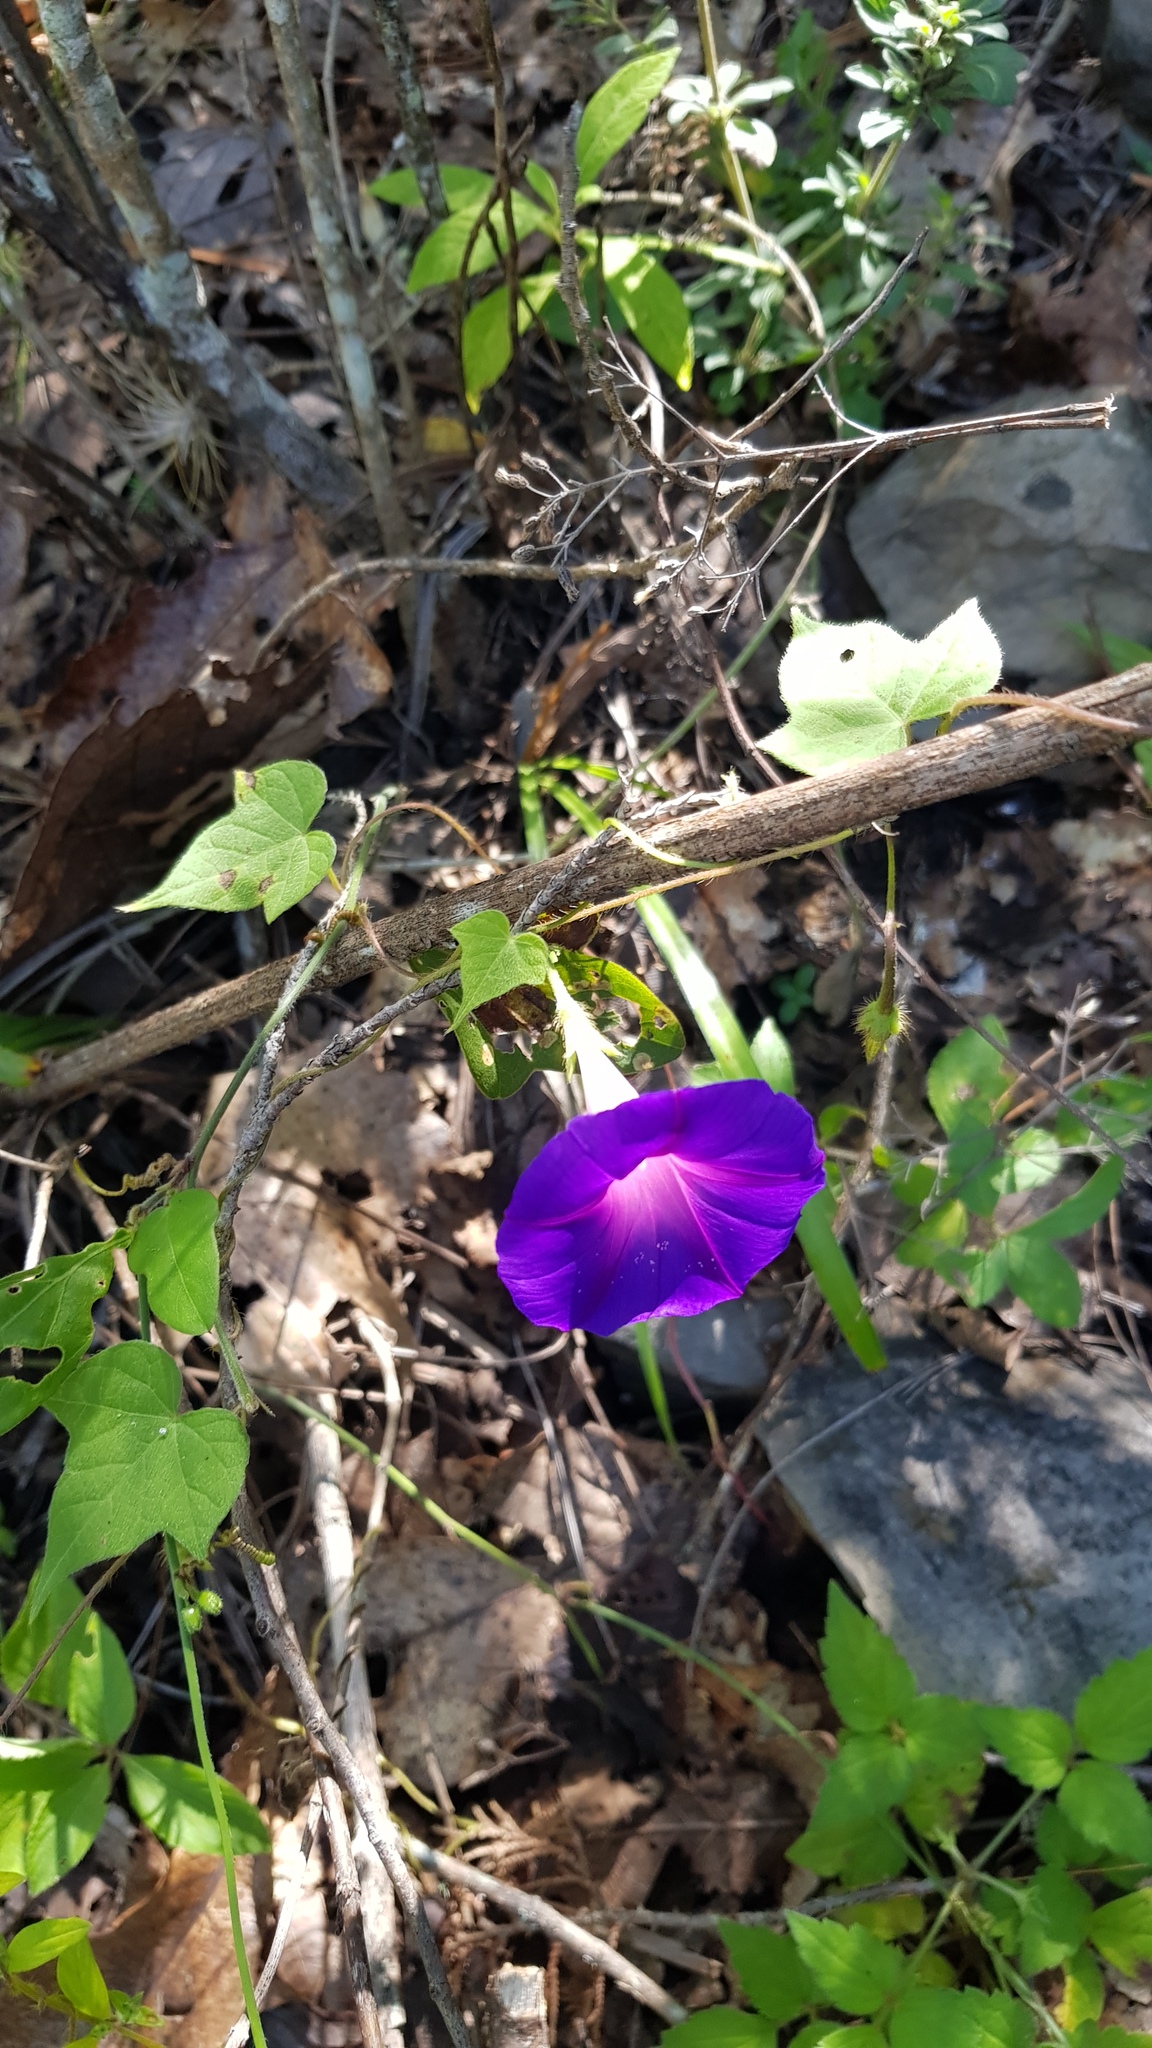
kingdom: Plantae
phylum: Tracheophyta
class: Magnoliopsida
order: Solanales
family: Convolvulaceae
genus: Ipomoea
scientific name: Ipomoea purpurea
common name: Common morning-glory
